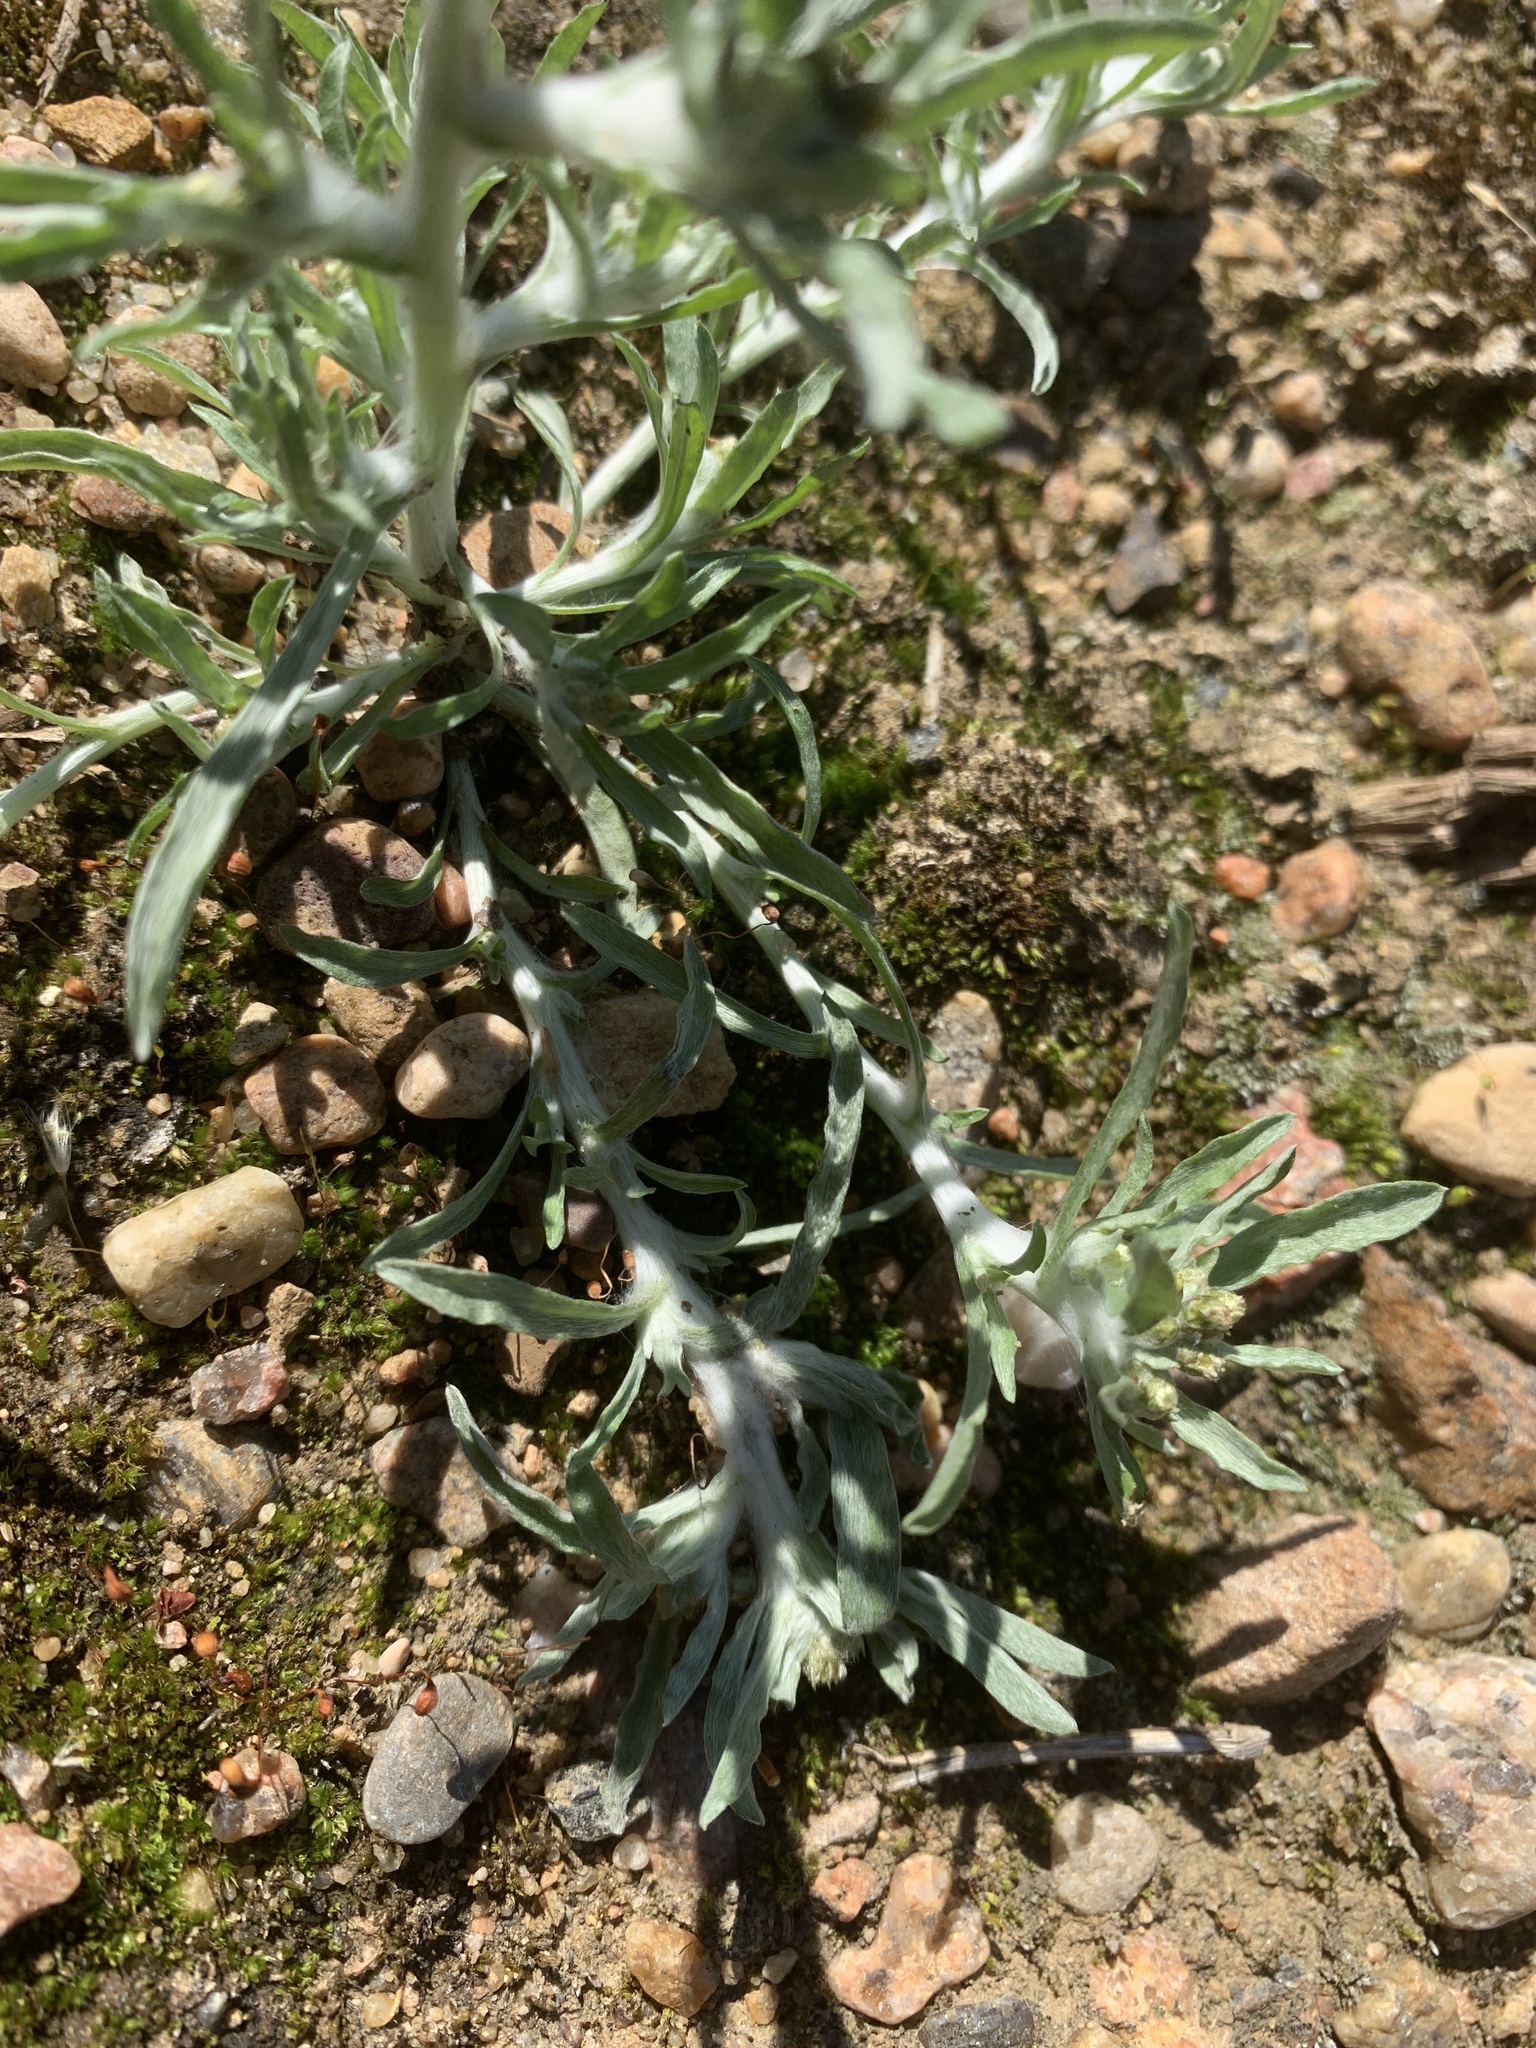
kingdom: Plantae
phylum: Tracheophyta
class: Magnoliopsida
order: Asterales
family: Asteraceae
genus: Gnaphalium
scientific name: Gnaphalium uliginosum
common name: Marsh cudweed
